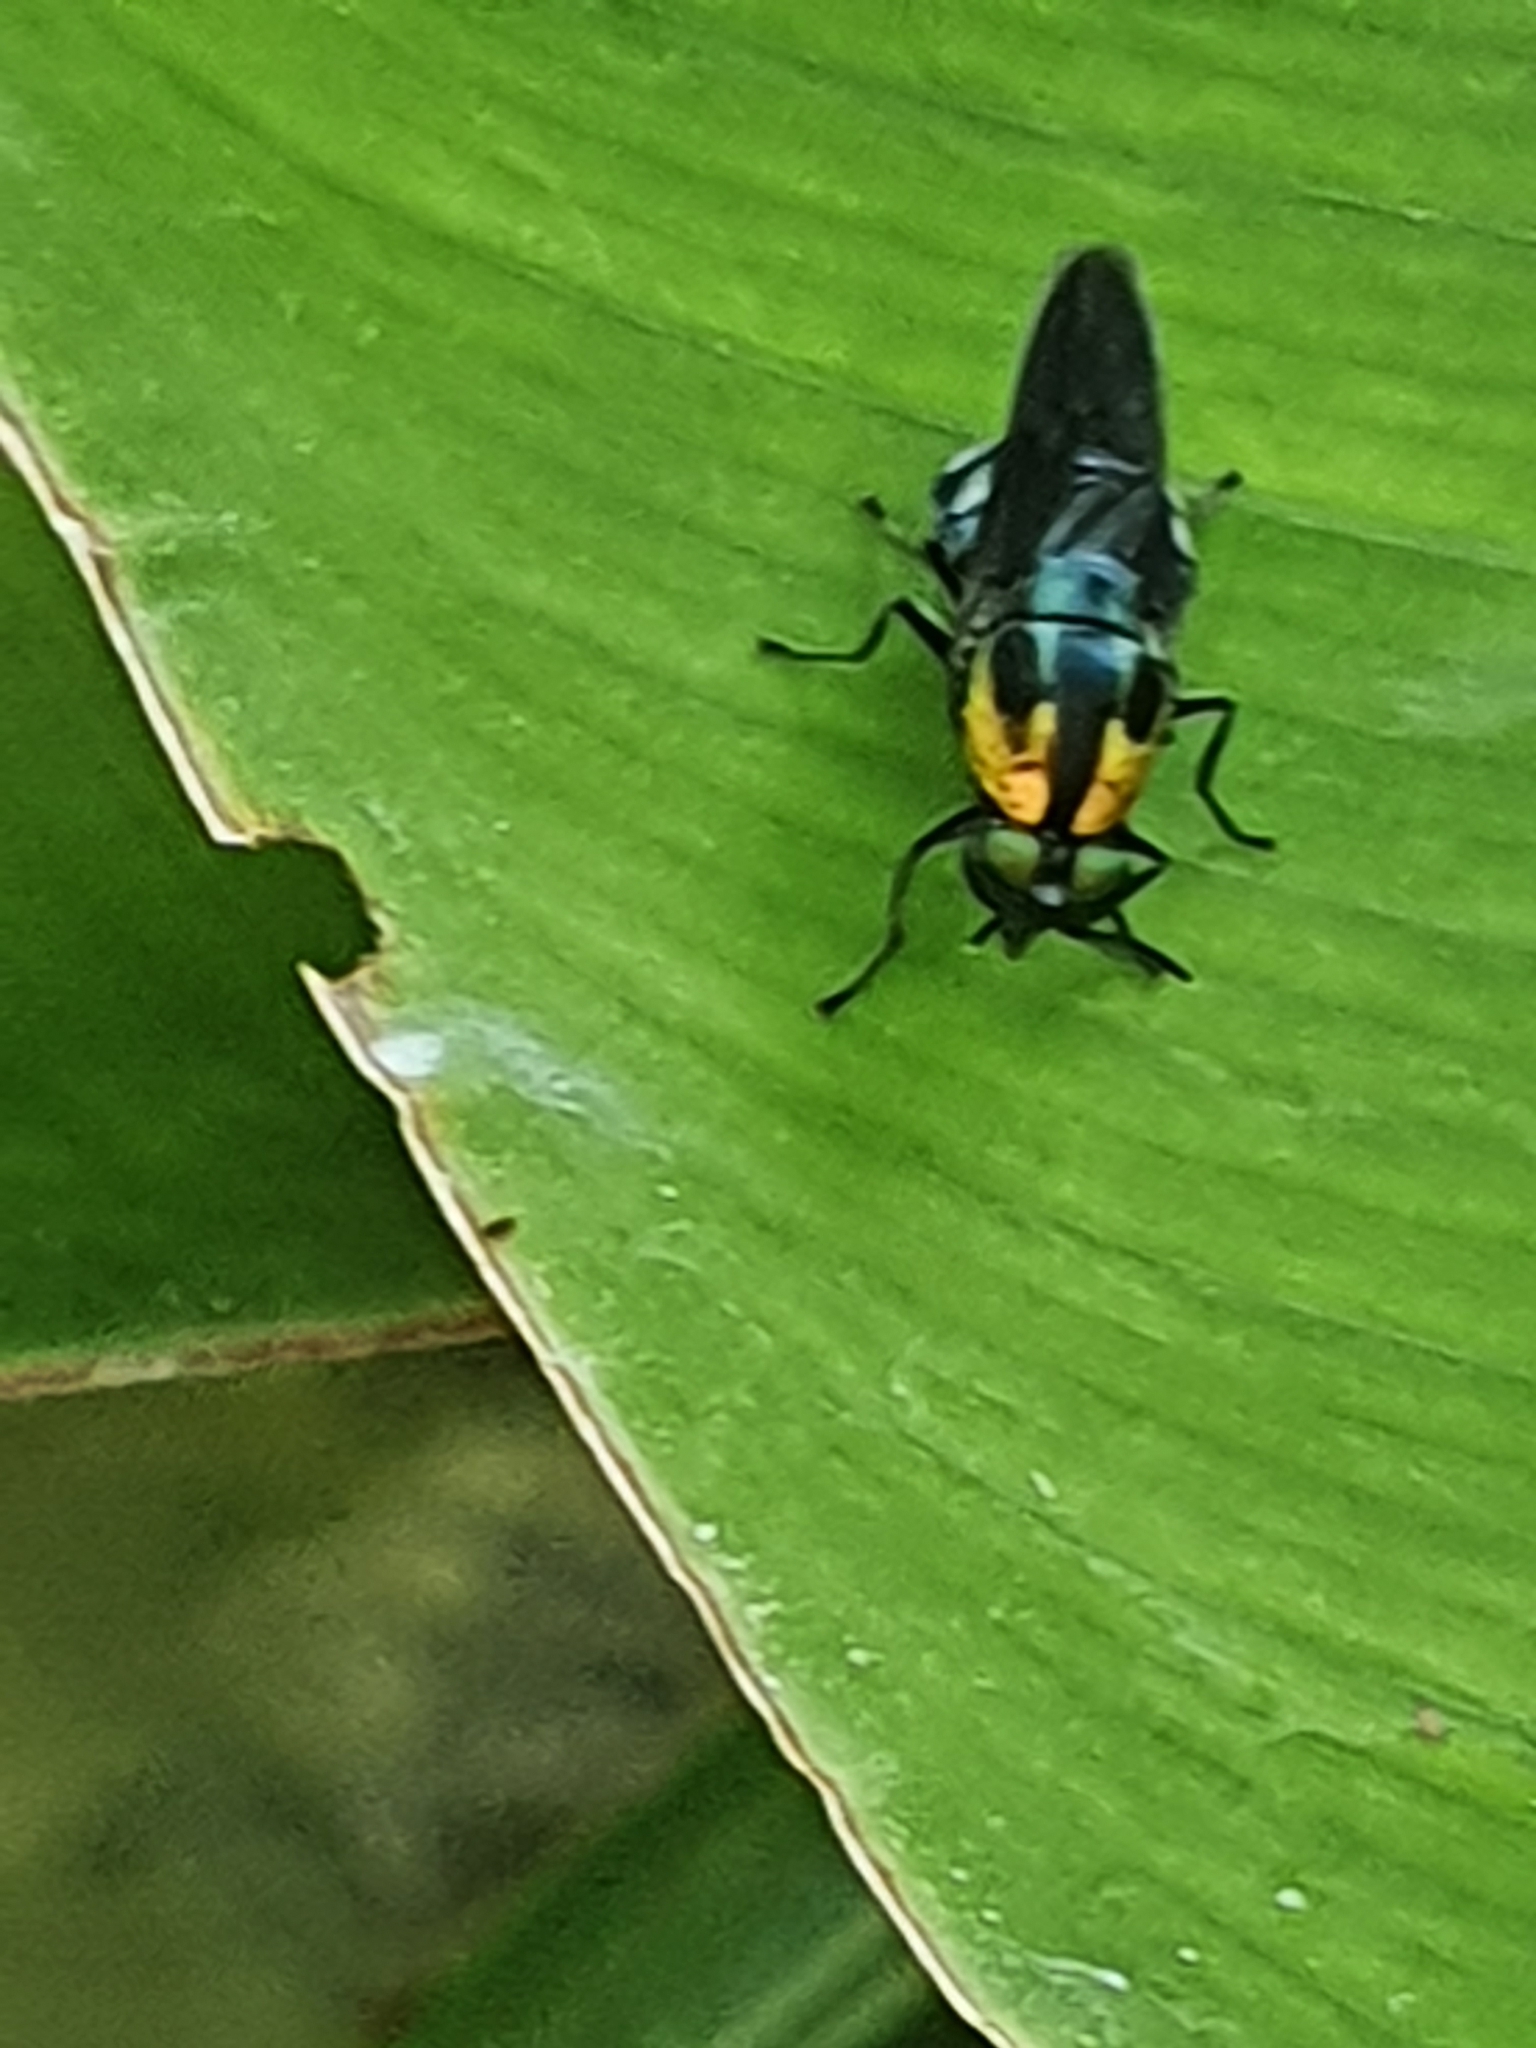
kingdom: Animalia
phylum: Arthropoda
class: Insecta
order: Diptera
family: Stratiomyidae
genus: Ptilocera
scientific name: Ptilocera quadridentata
